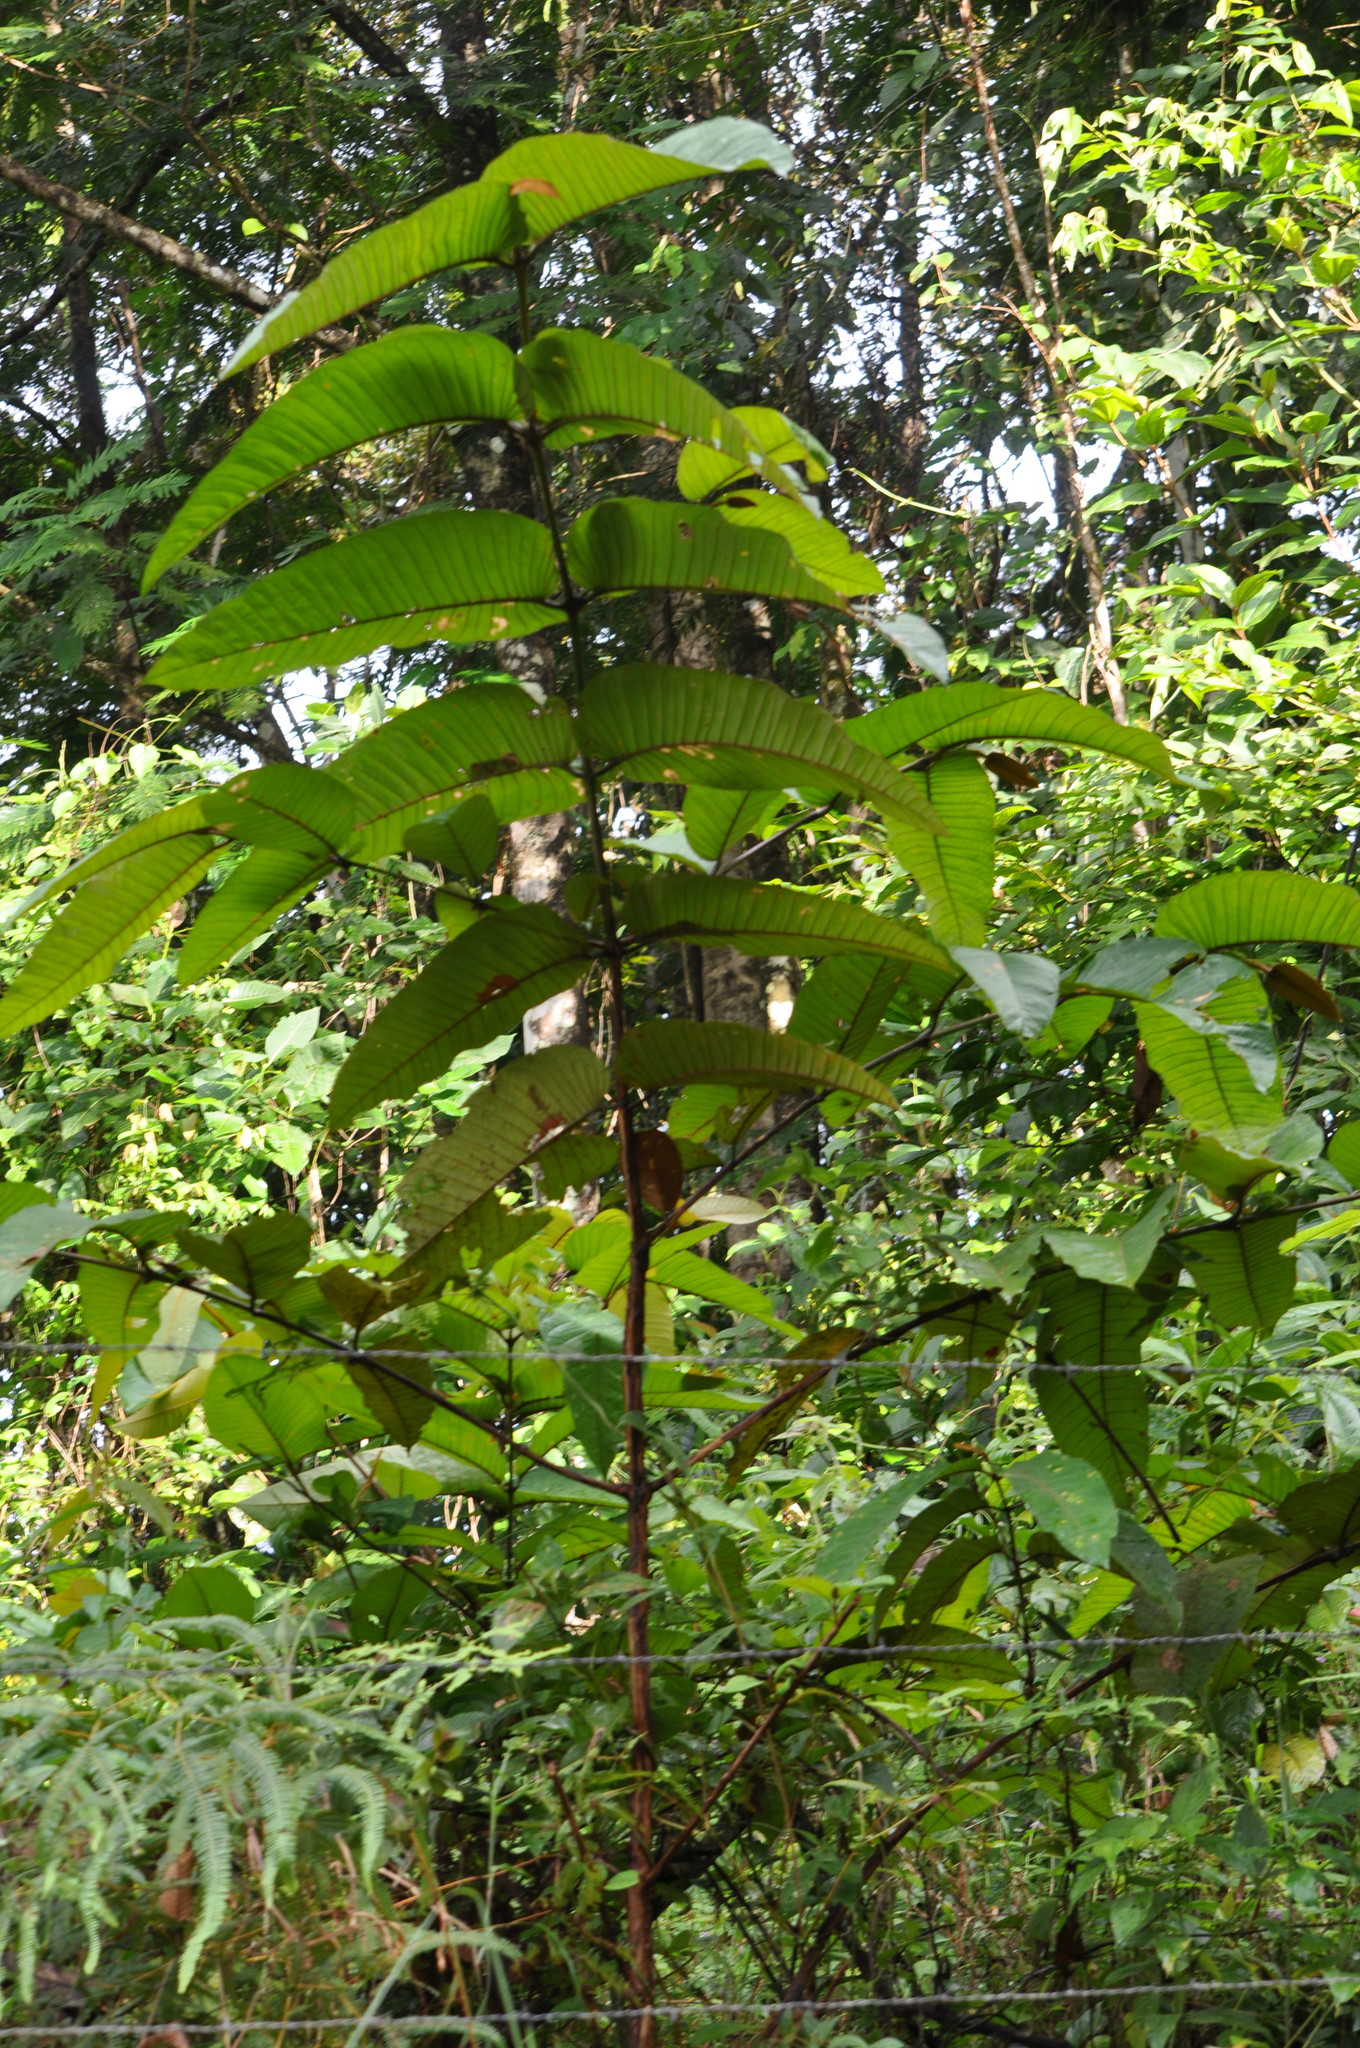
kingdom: Plantae
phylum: Tracheophyta
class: Magnoliopsida
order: Malpighiales
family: Hypericaceae
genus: Vismia
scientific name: Vismia macrophylla
